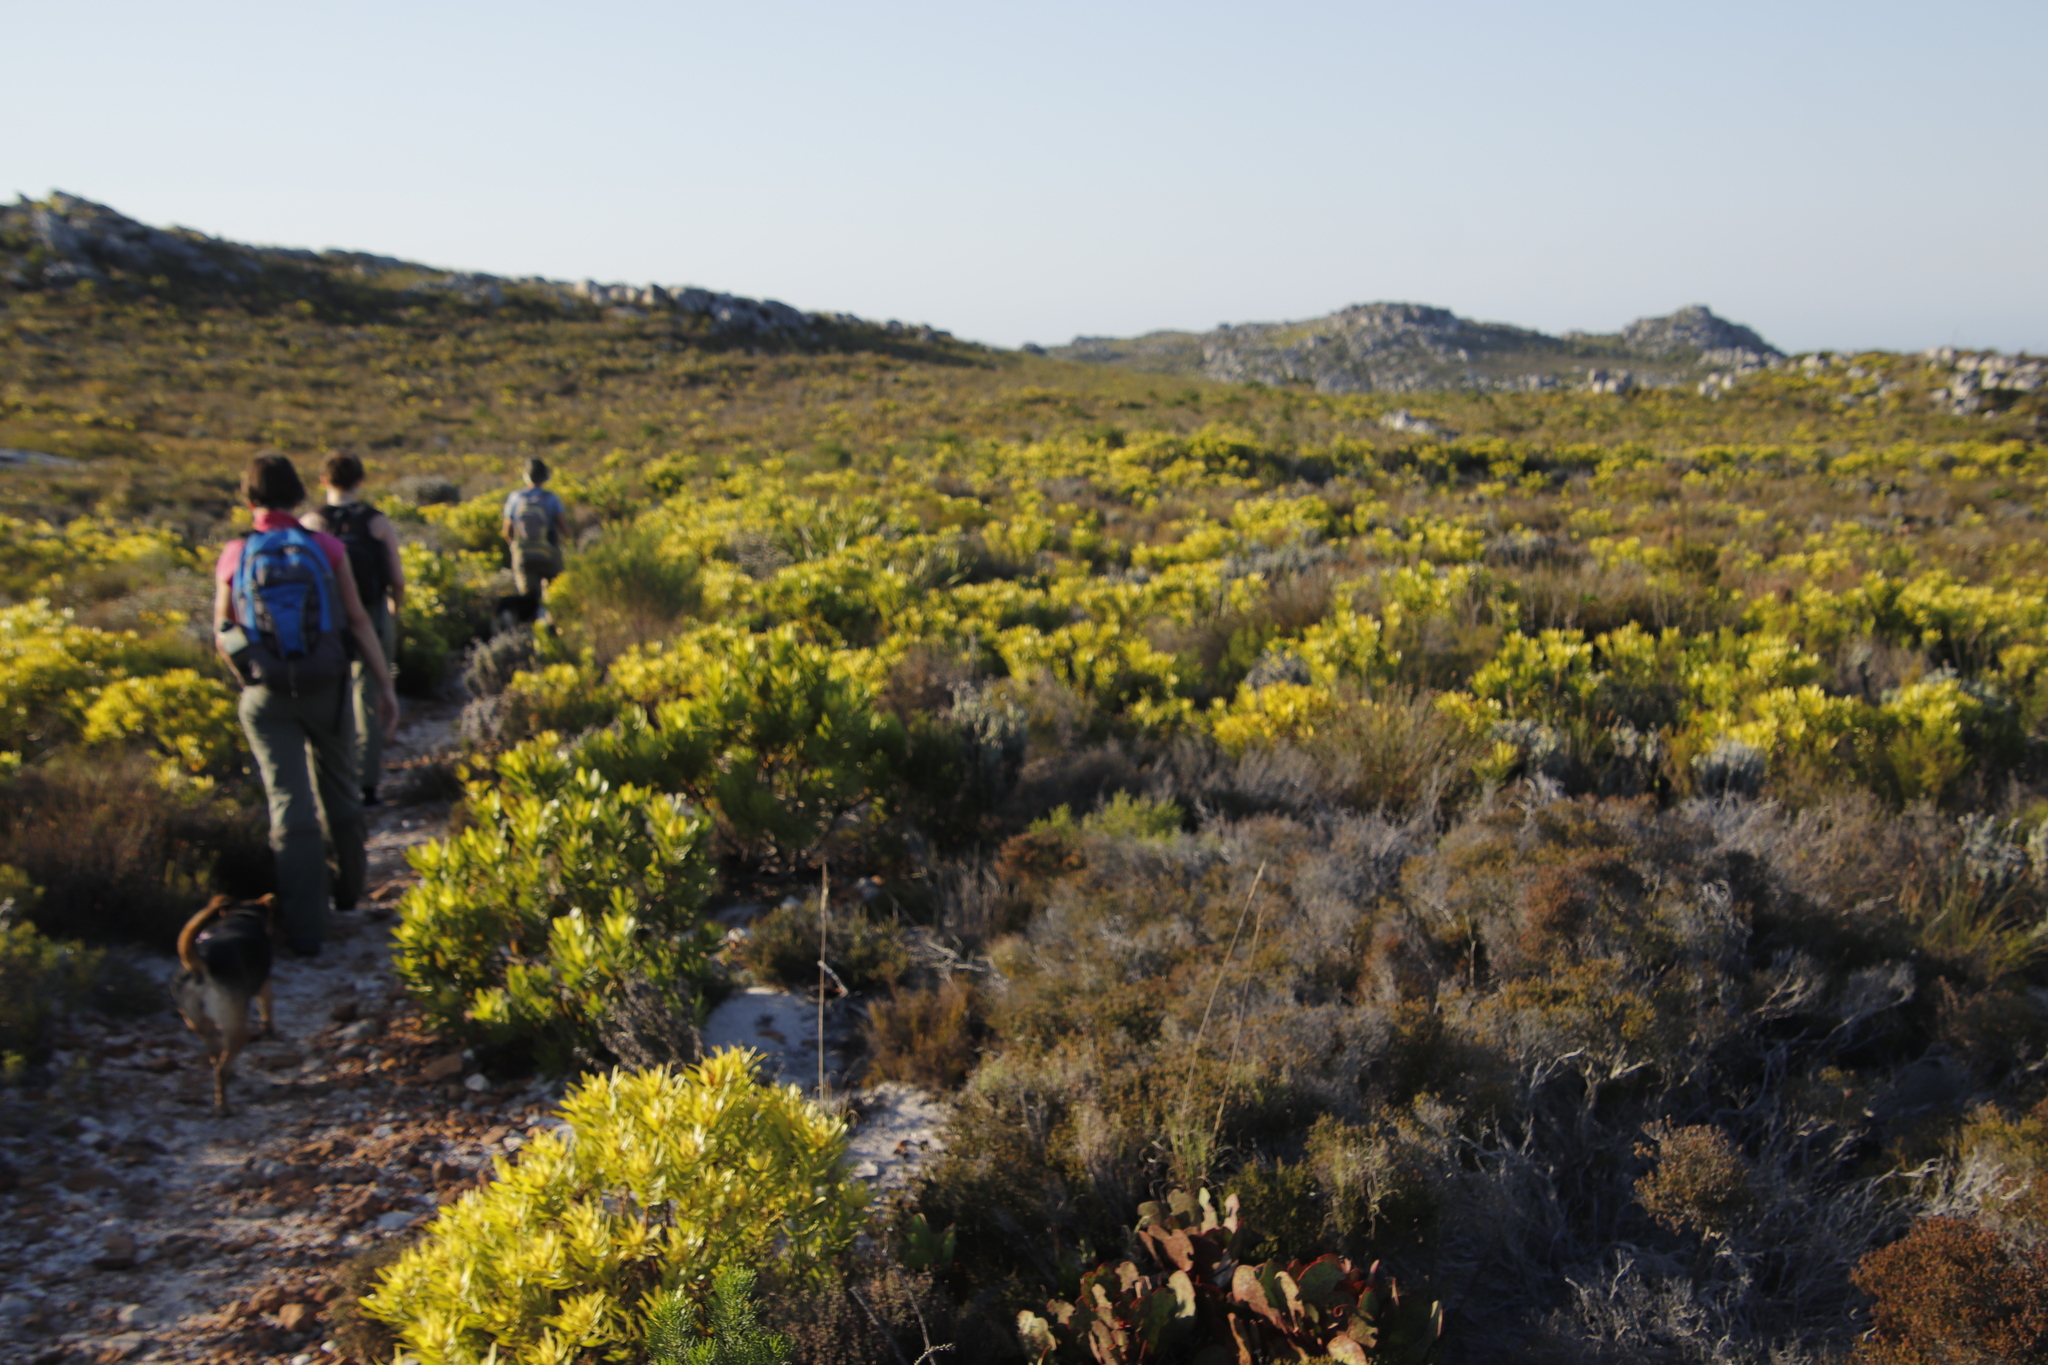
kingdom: Plantae
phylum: Tracheophyta
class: Magnoliopsida
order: Proteales
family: Proteaceae
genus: Leucadendron
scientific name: Leucadendron laureolum
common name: Golden sunshinebush
